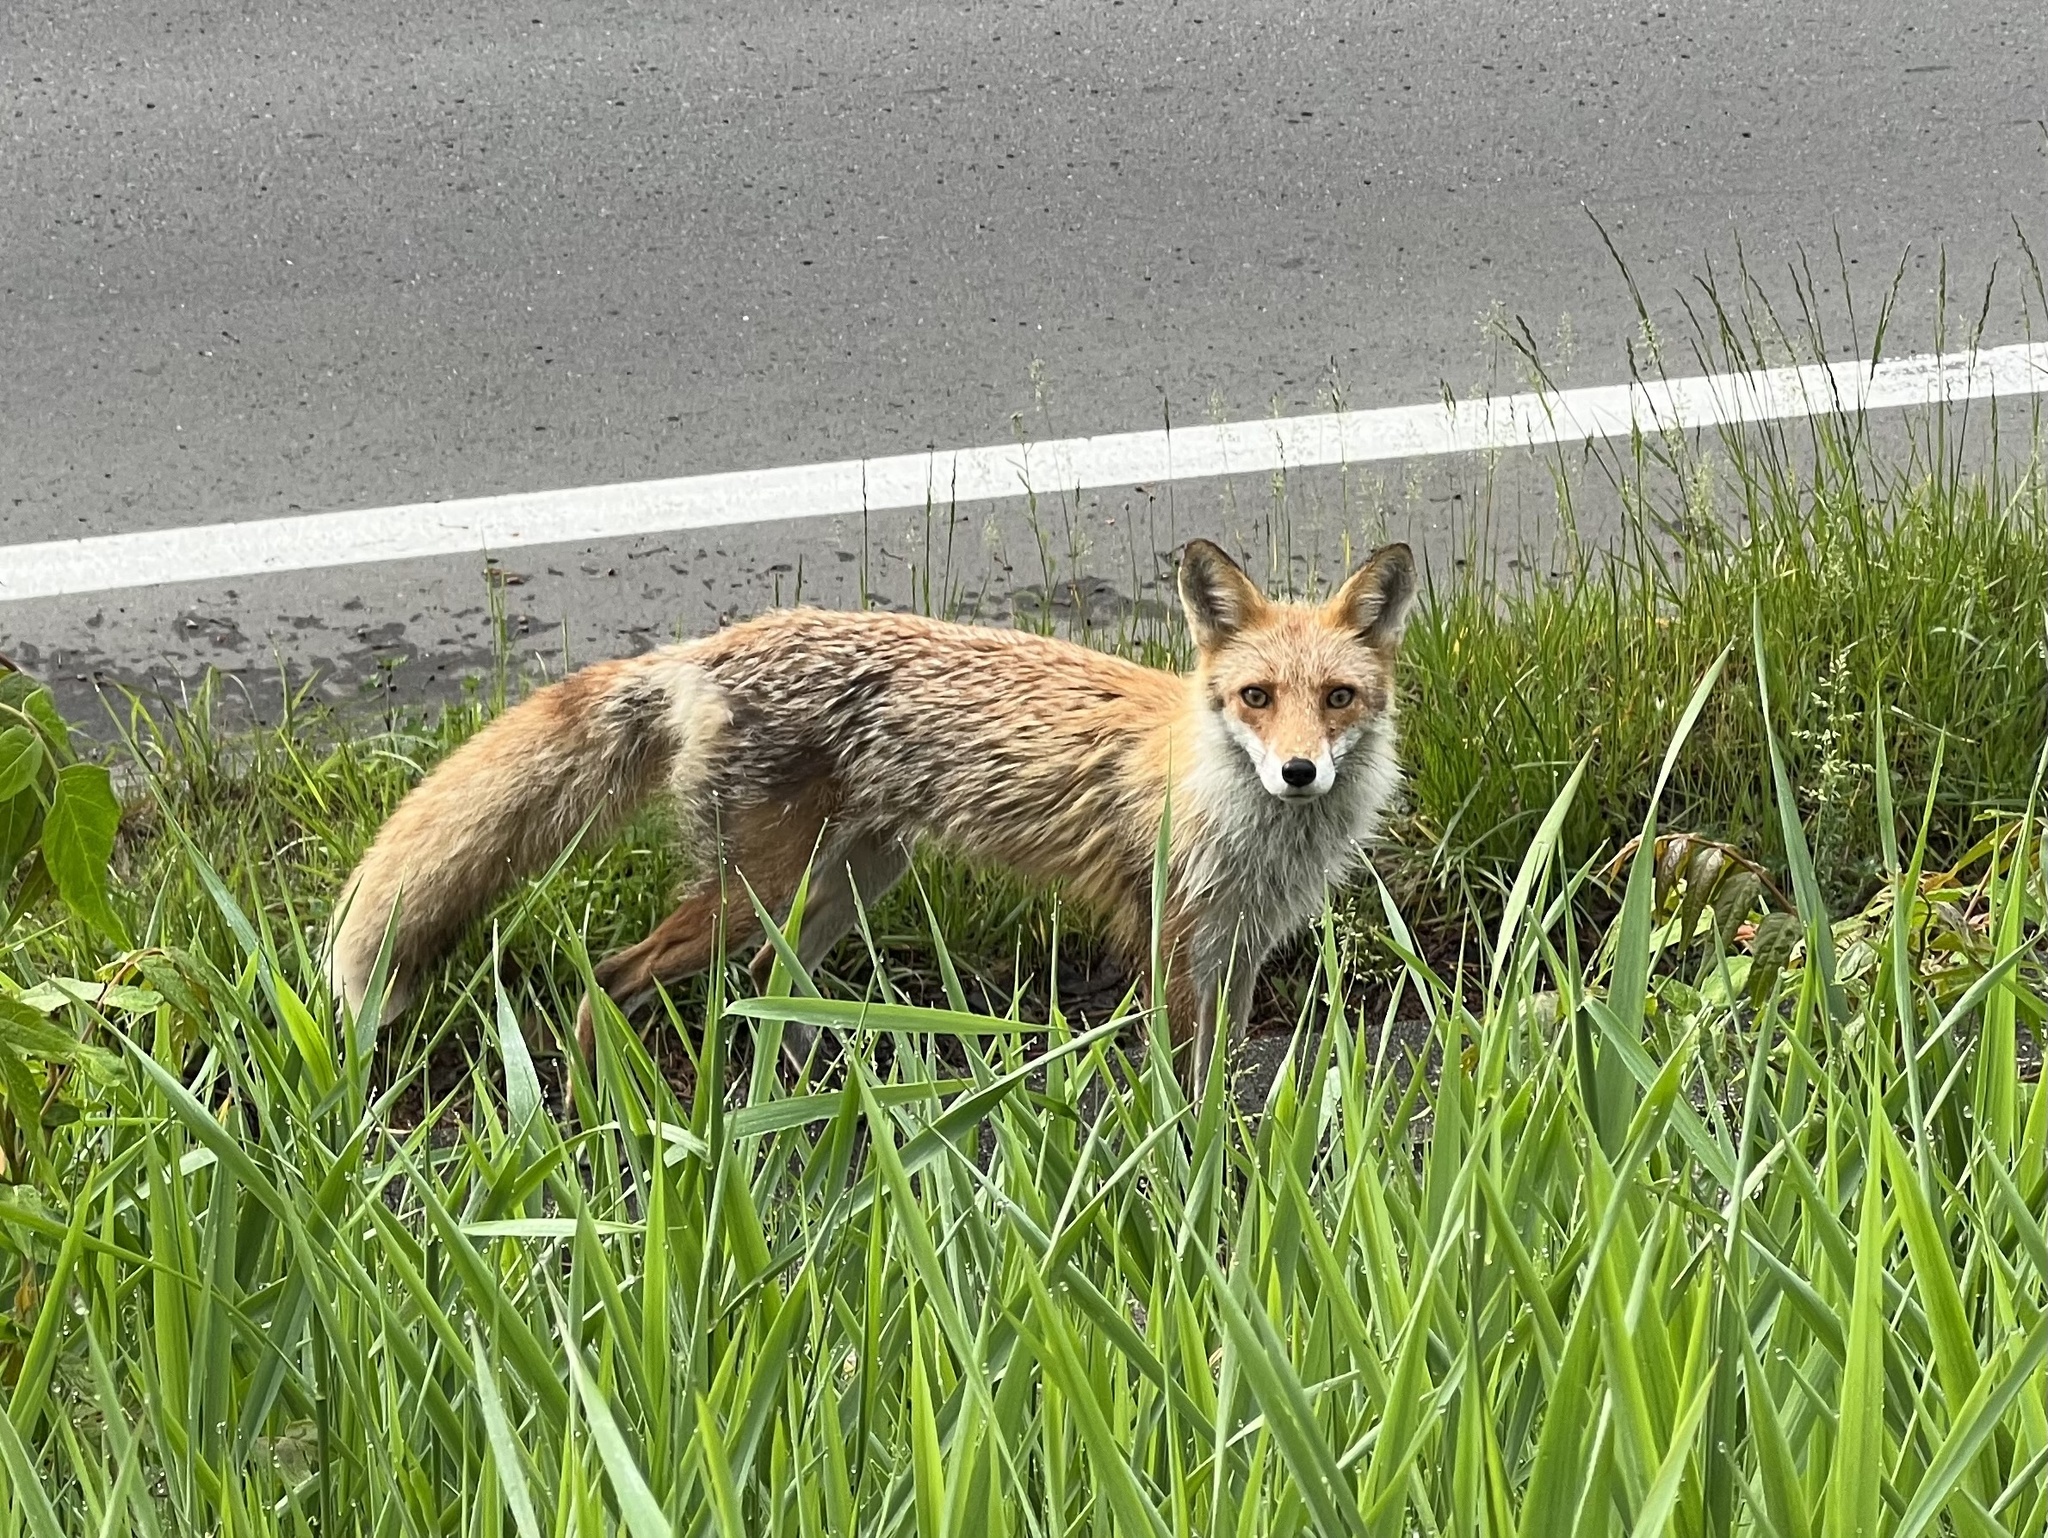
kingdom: Animalia
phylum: Chordata
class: Mammalia
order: Carnivora
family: Canidae
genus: Vulpes
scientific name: Vulpes vulpes
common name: Red fox
